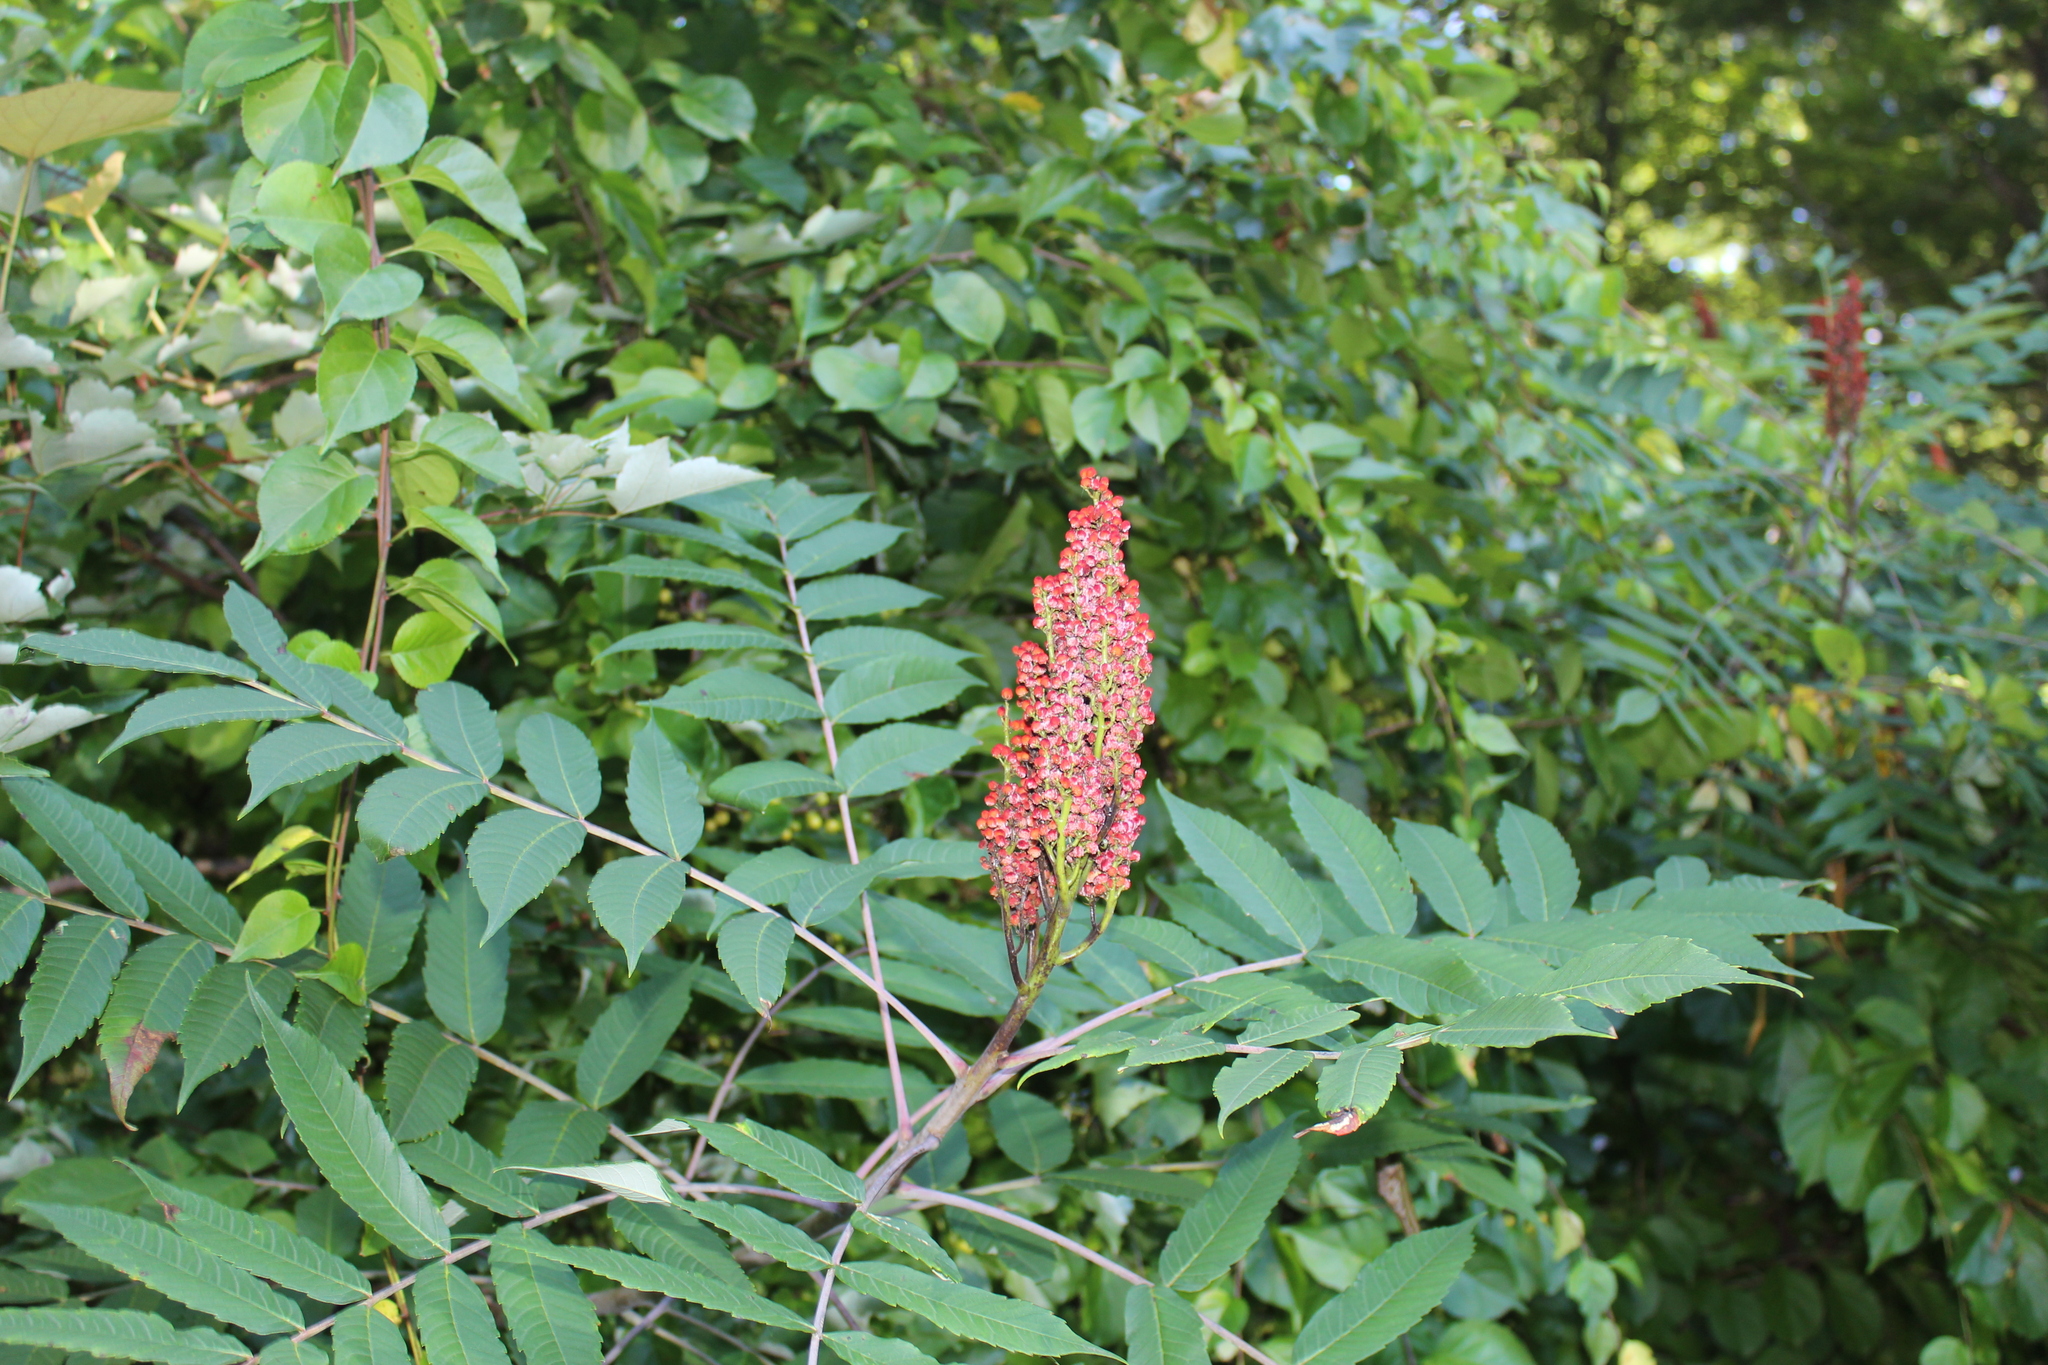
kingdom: Plantae
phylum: Tracheophyta
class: Magnoliopsida
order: Sapindales
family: Anacardiaceae
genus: Rhus
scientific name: Rhus glabra
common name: Scarlet sumac
